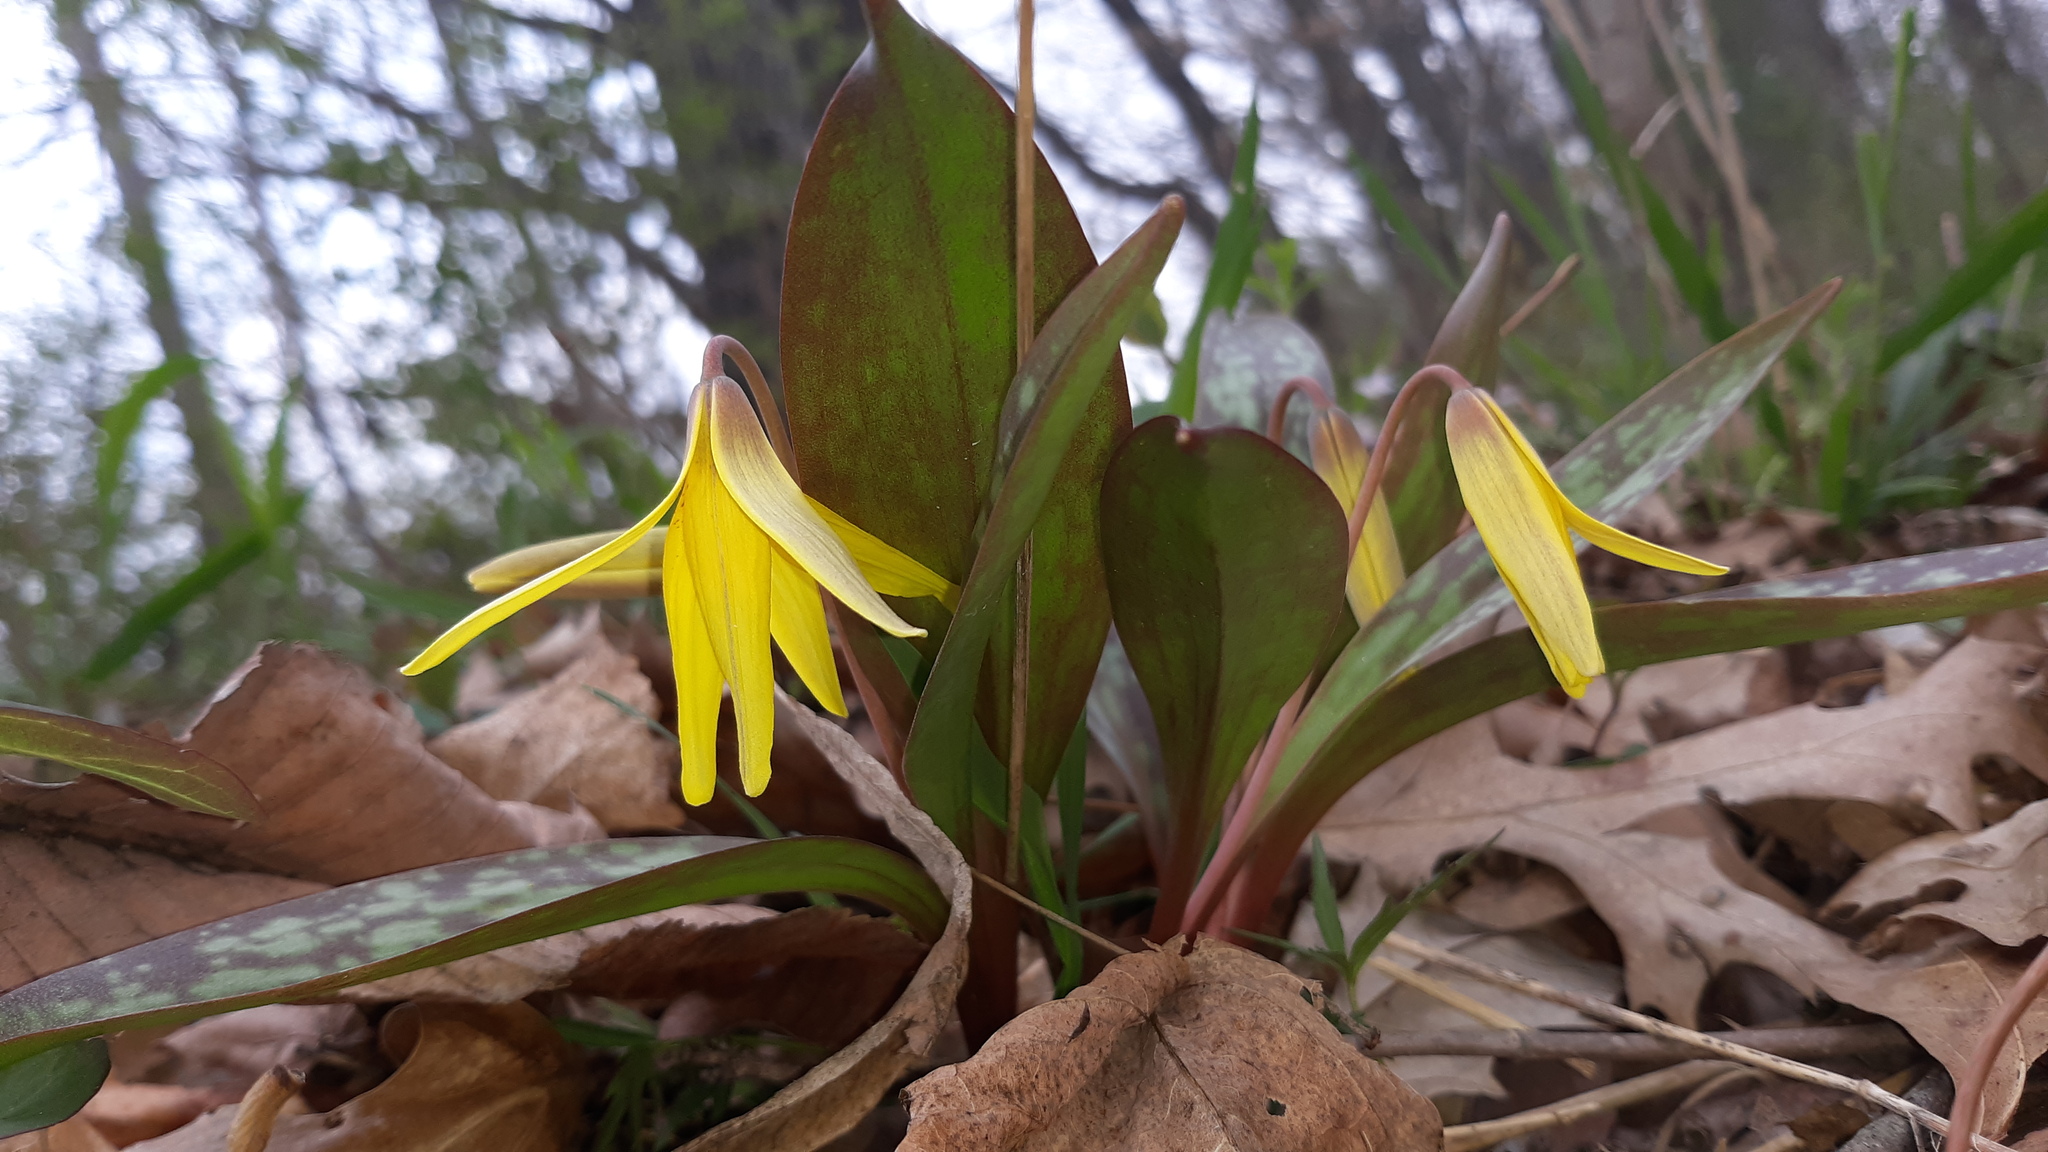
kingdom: Plantae
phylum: Tracheophyta
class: Liliopsida
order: Liliales
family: Liliaceae
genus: Erythronium
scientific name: Erythronium americanum
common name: Yellow adder's-tongue
